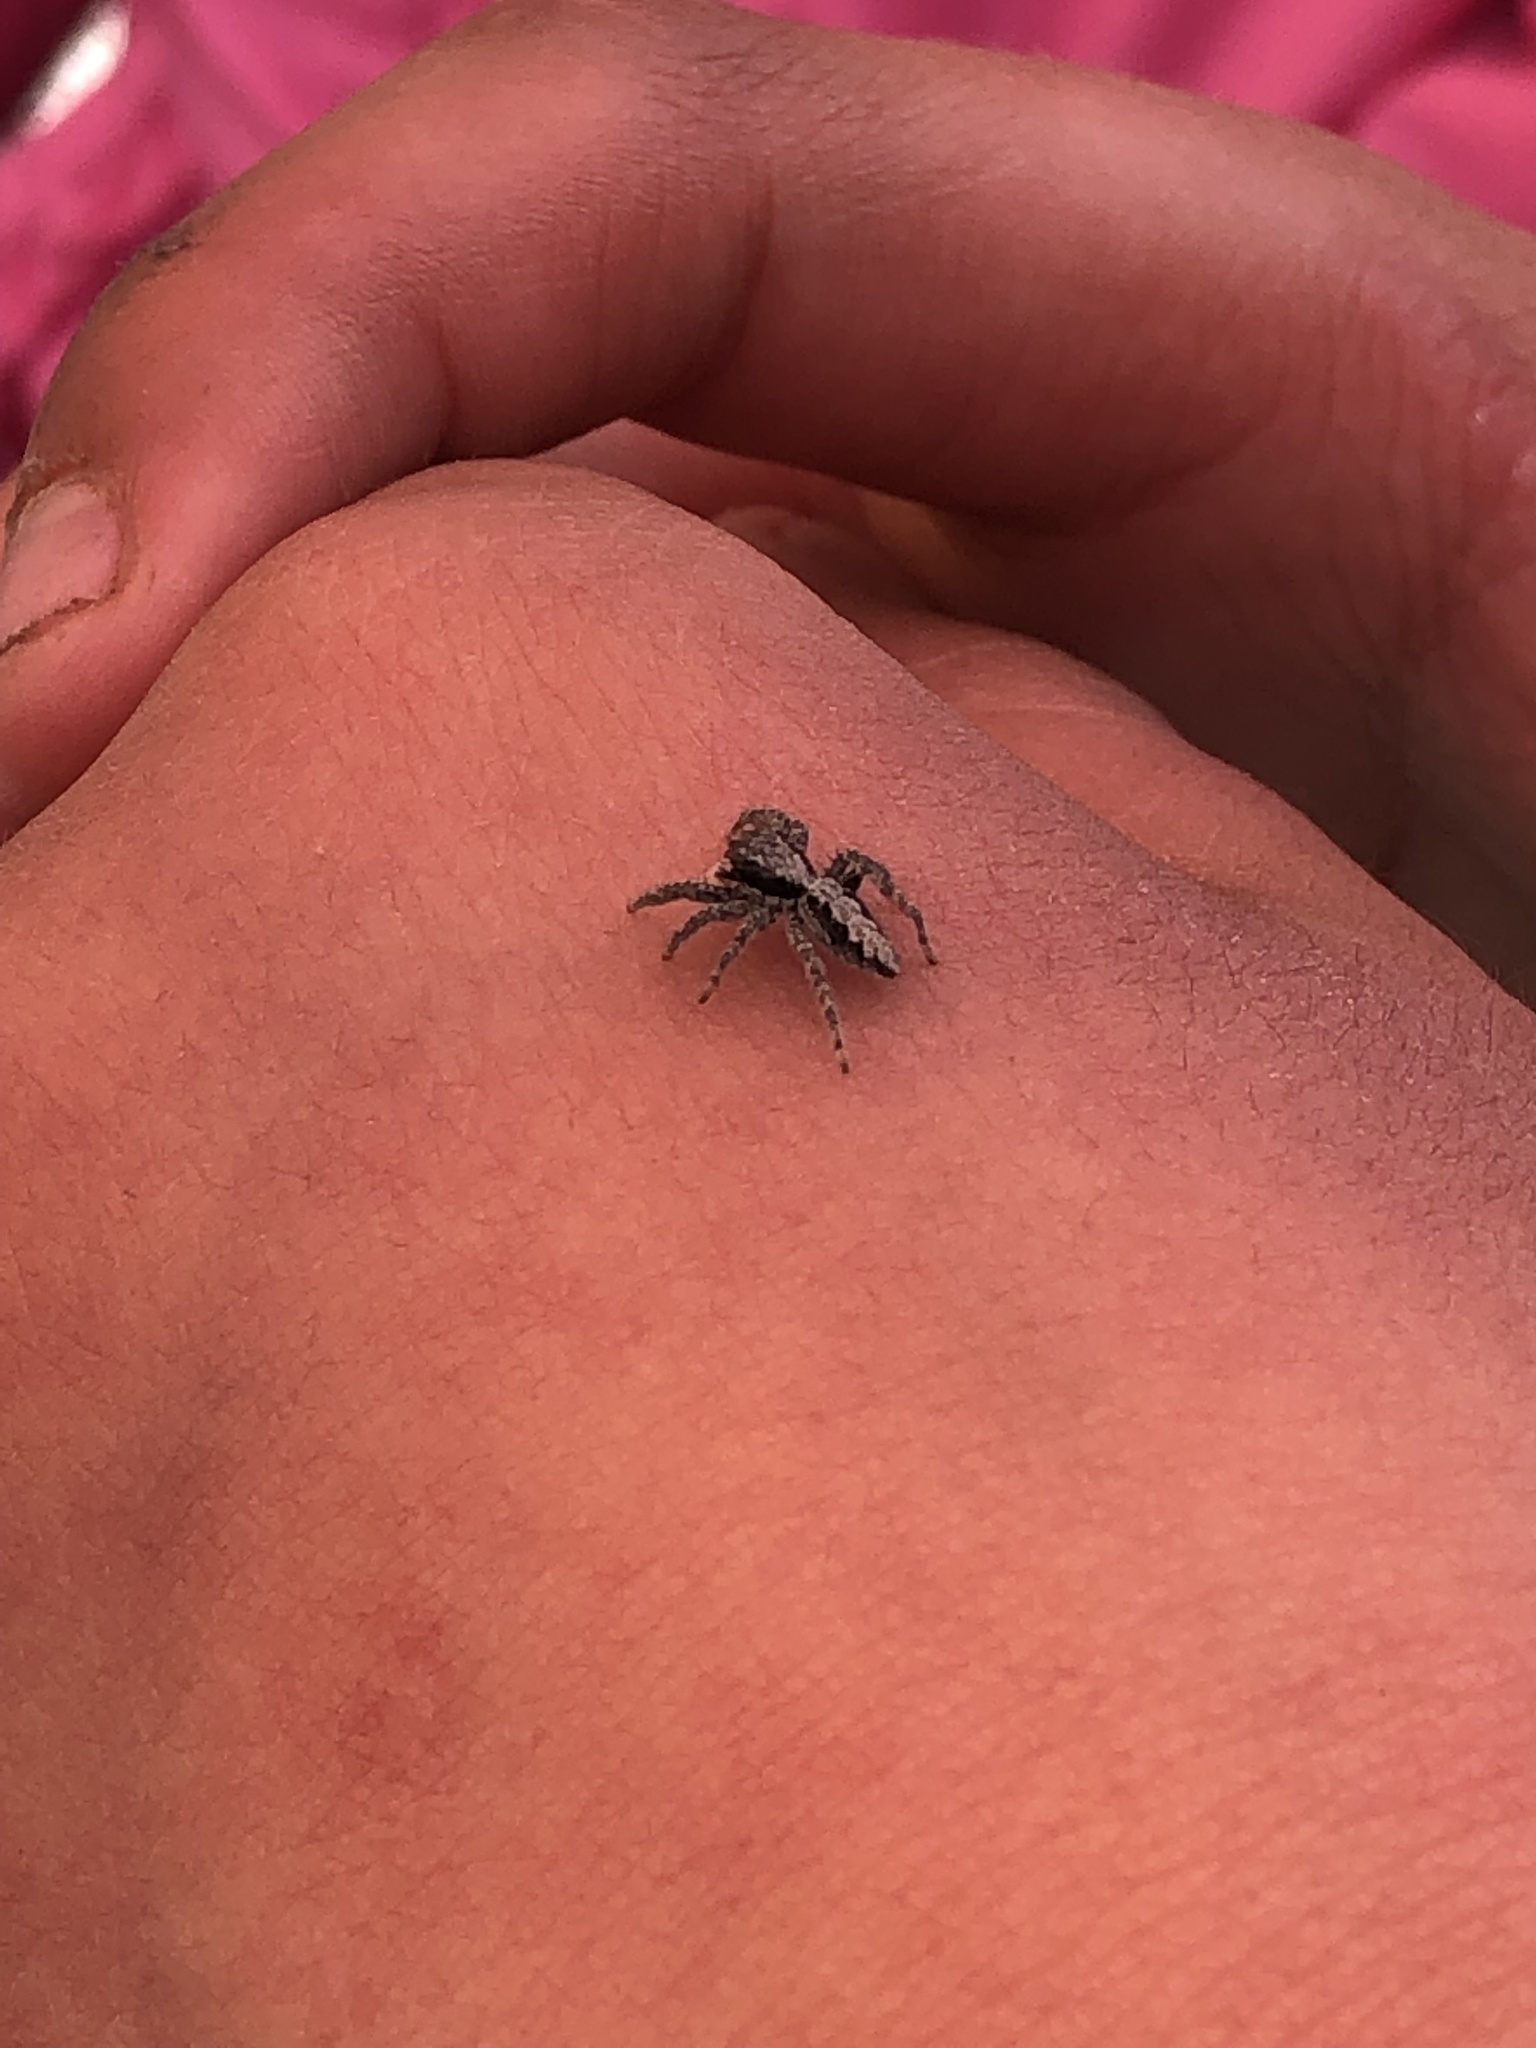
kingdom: Animalia
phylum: Arthropoda
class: Arachnida
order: Araneae
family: Salticidae
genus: Platycryptus
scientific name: Platycryptus californicus
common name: Jumping spiders
